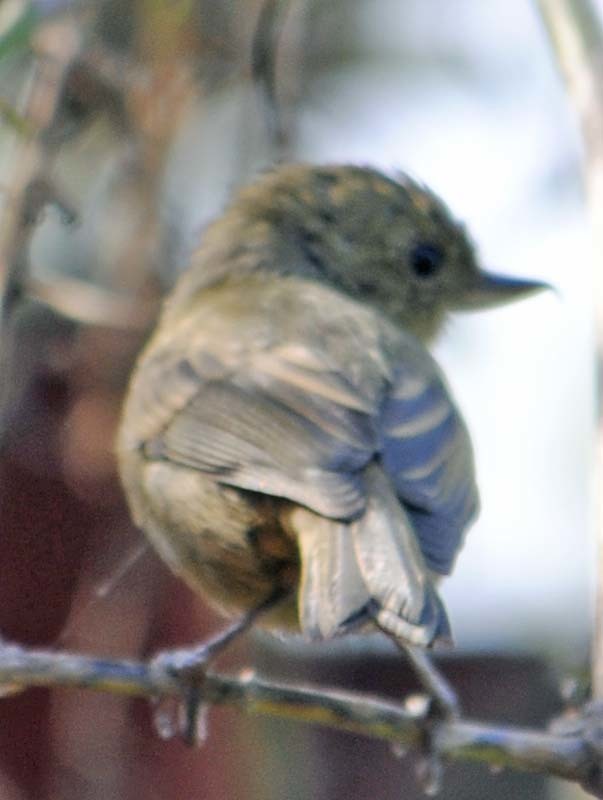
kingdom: Animalia
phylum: Chordata
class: Aves
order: Passeriformes
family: Thraupidae
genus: Diglossa
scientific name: Diglossa baritula
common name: Cinnamon-bellied flowerpiercer
